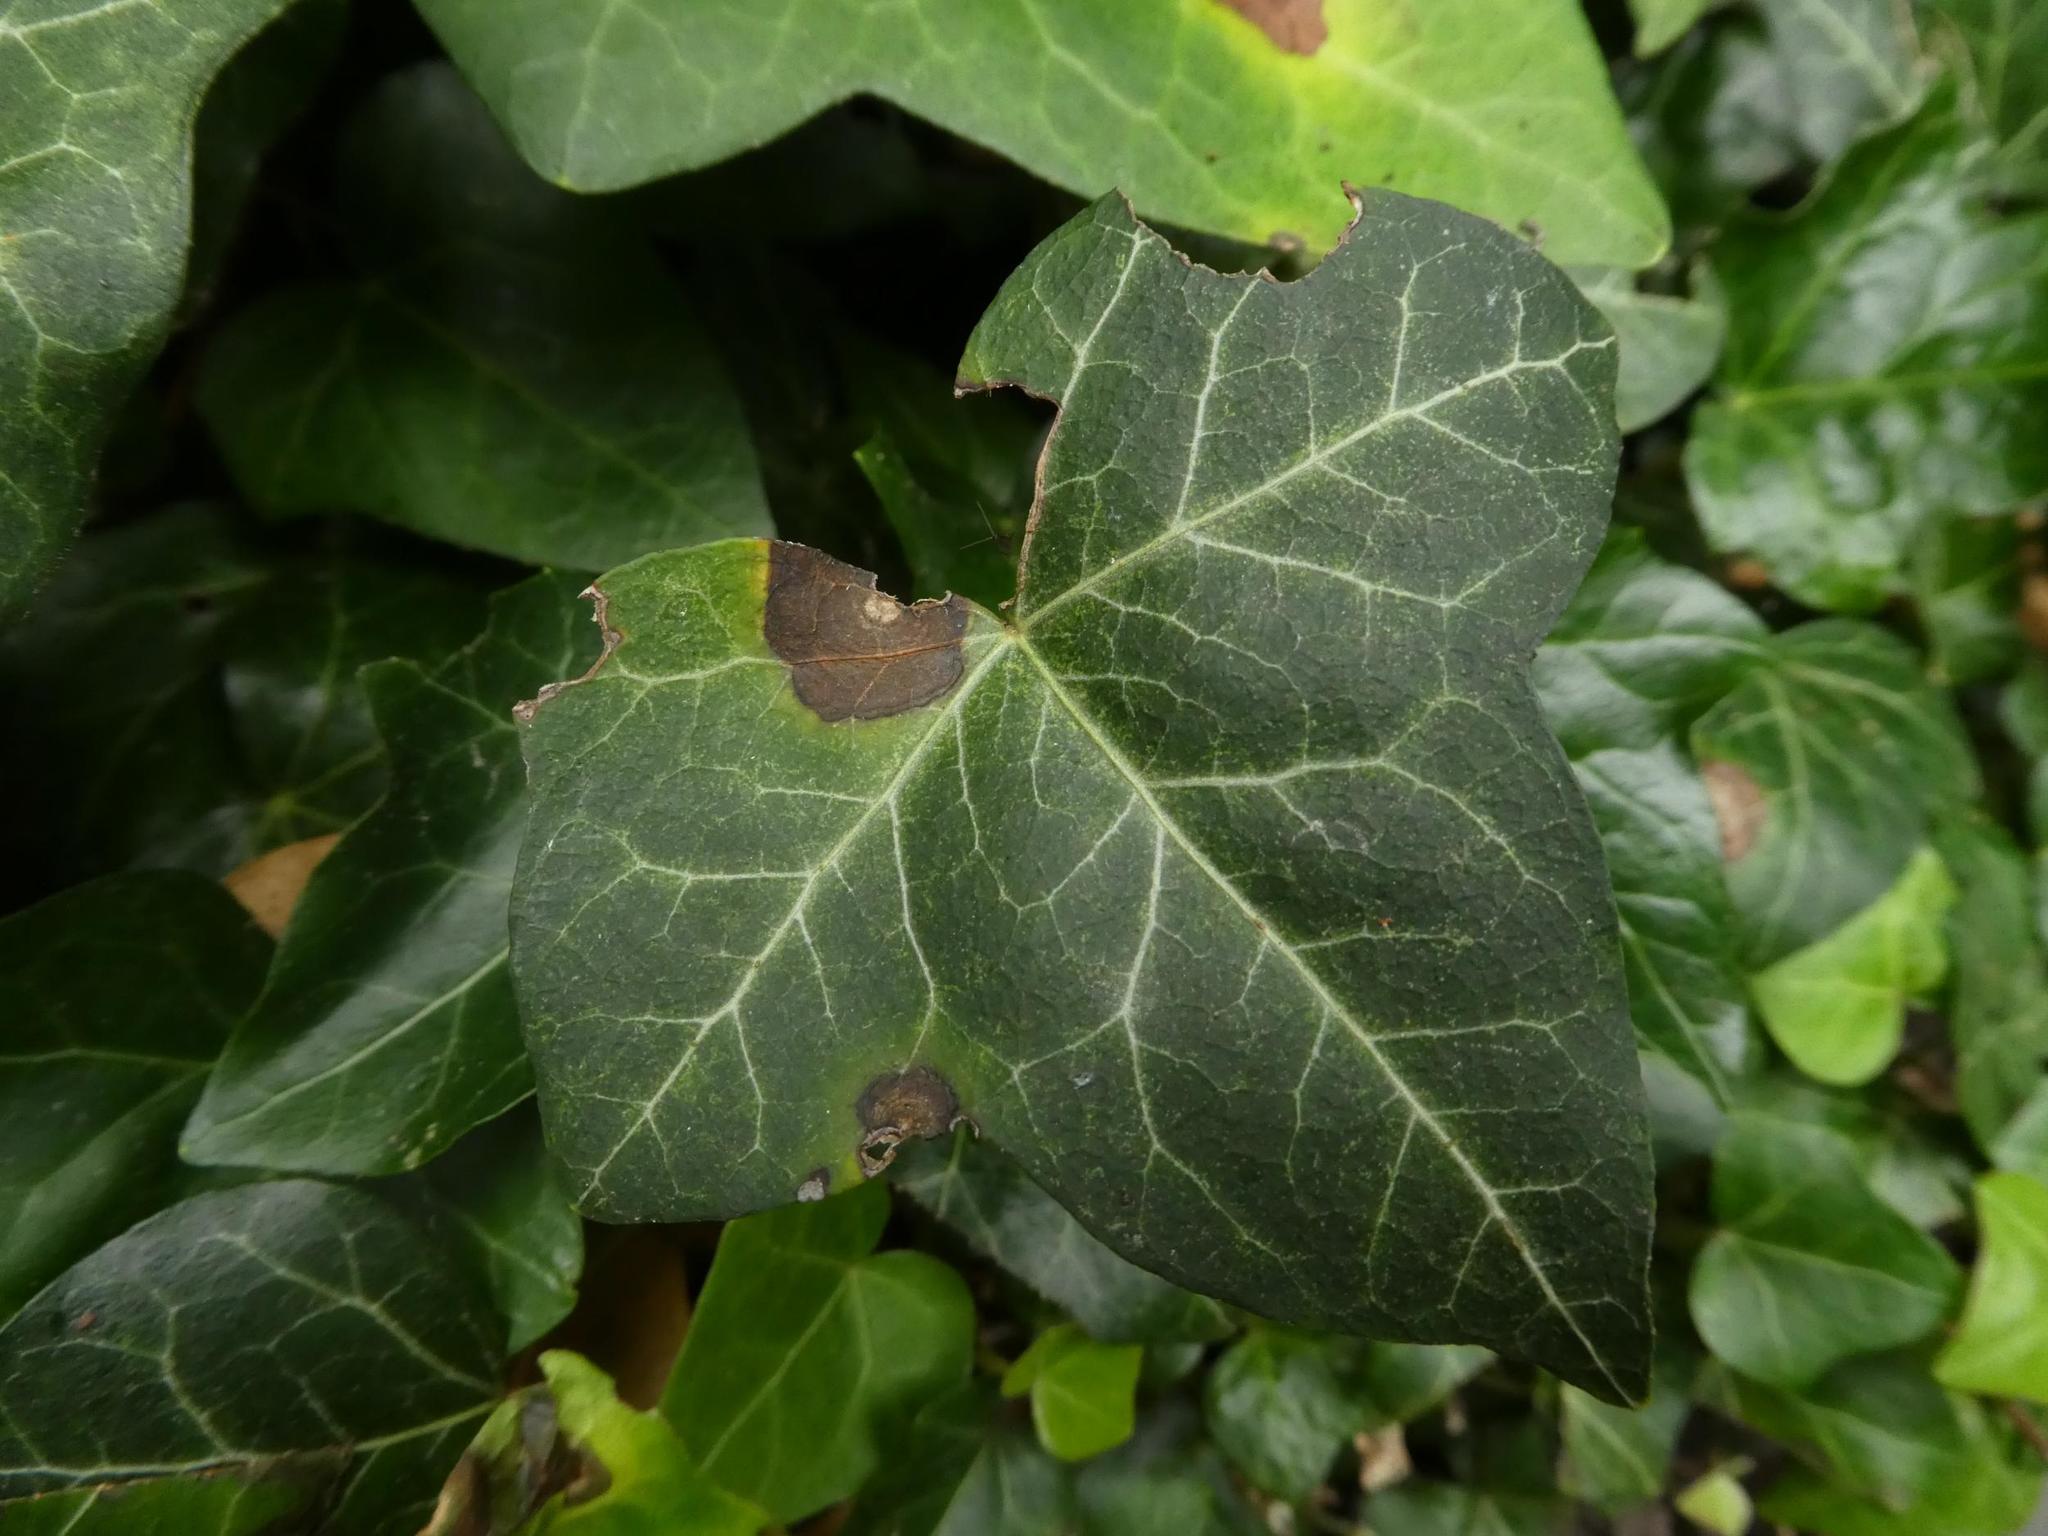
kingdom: Plantae
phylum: Tracheophyta
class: Magnoliopsida
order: Apiales
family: Araliaceae
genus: Hedera
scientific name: Hedera helix
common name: Ivy
